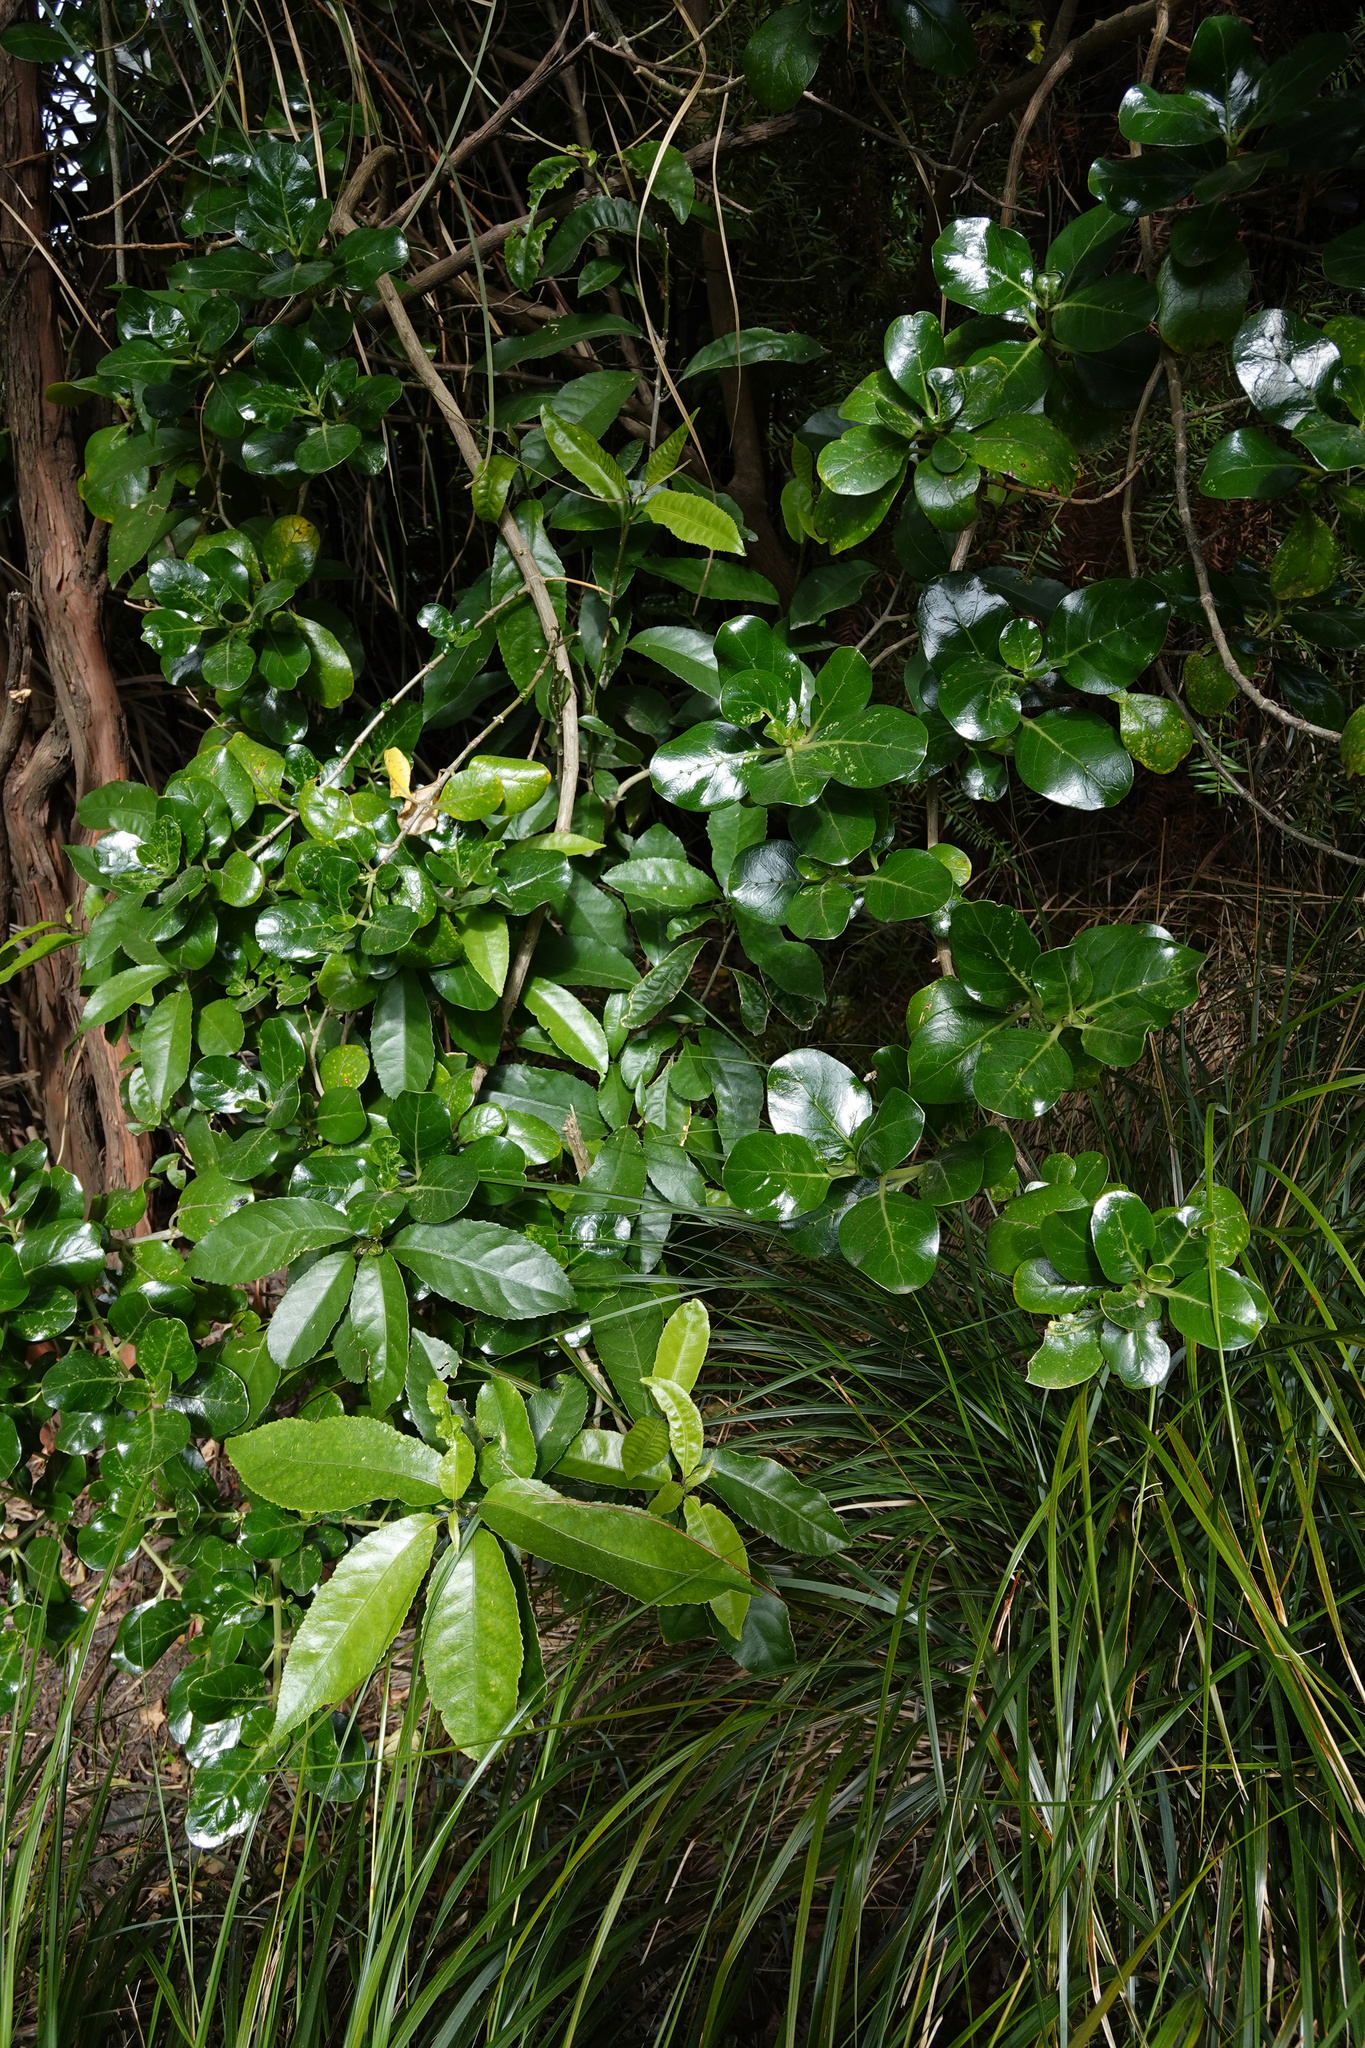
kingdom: Plantae
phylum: Tracheophyta
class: Magnoliopsida
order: Malpighiales
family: Violaceae
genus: Melicytus
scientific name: Melicytus ramiflorus
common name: Mahoe
